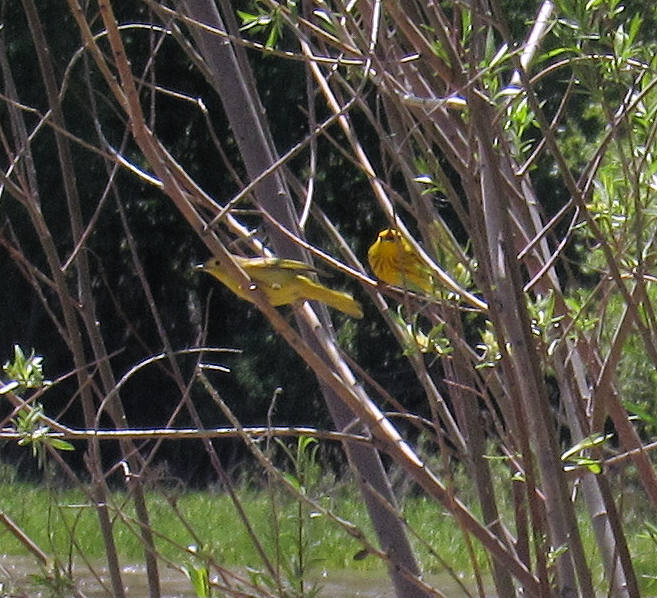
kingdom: Animalia
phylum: Chordata
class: Aves
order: Passeriformes
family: Parulidae
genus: Setophaga
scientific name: Setophaga petechia
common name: Yellow warbler
